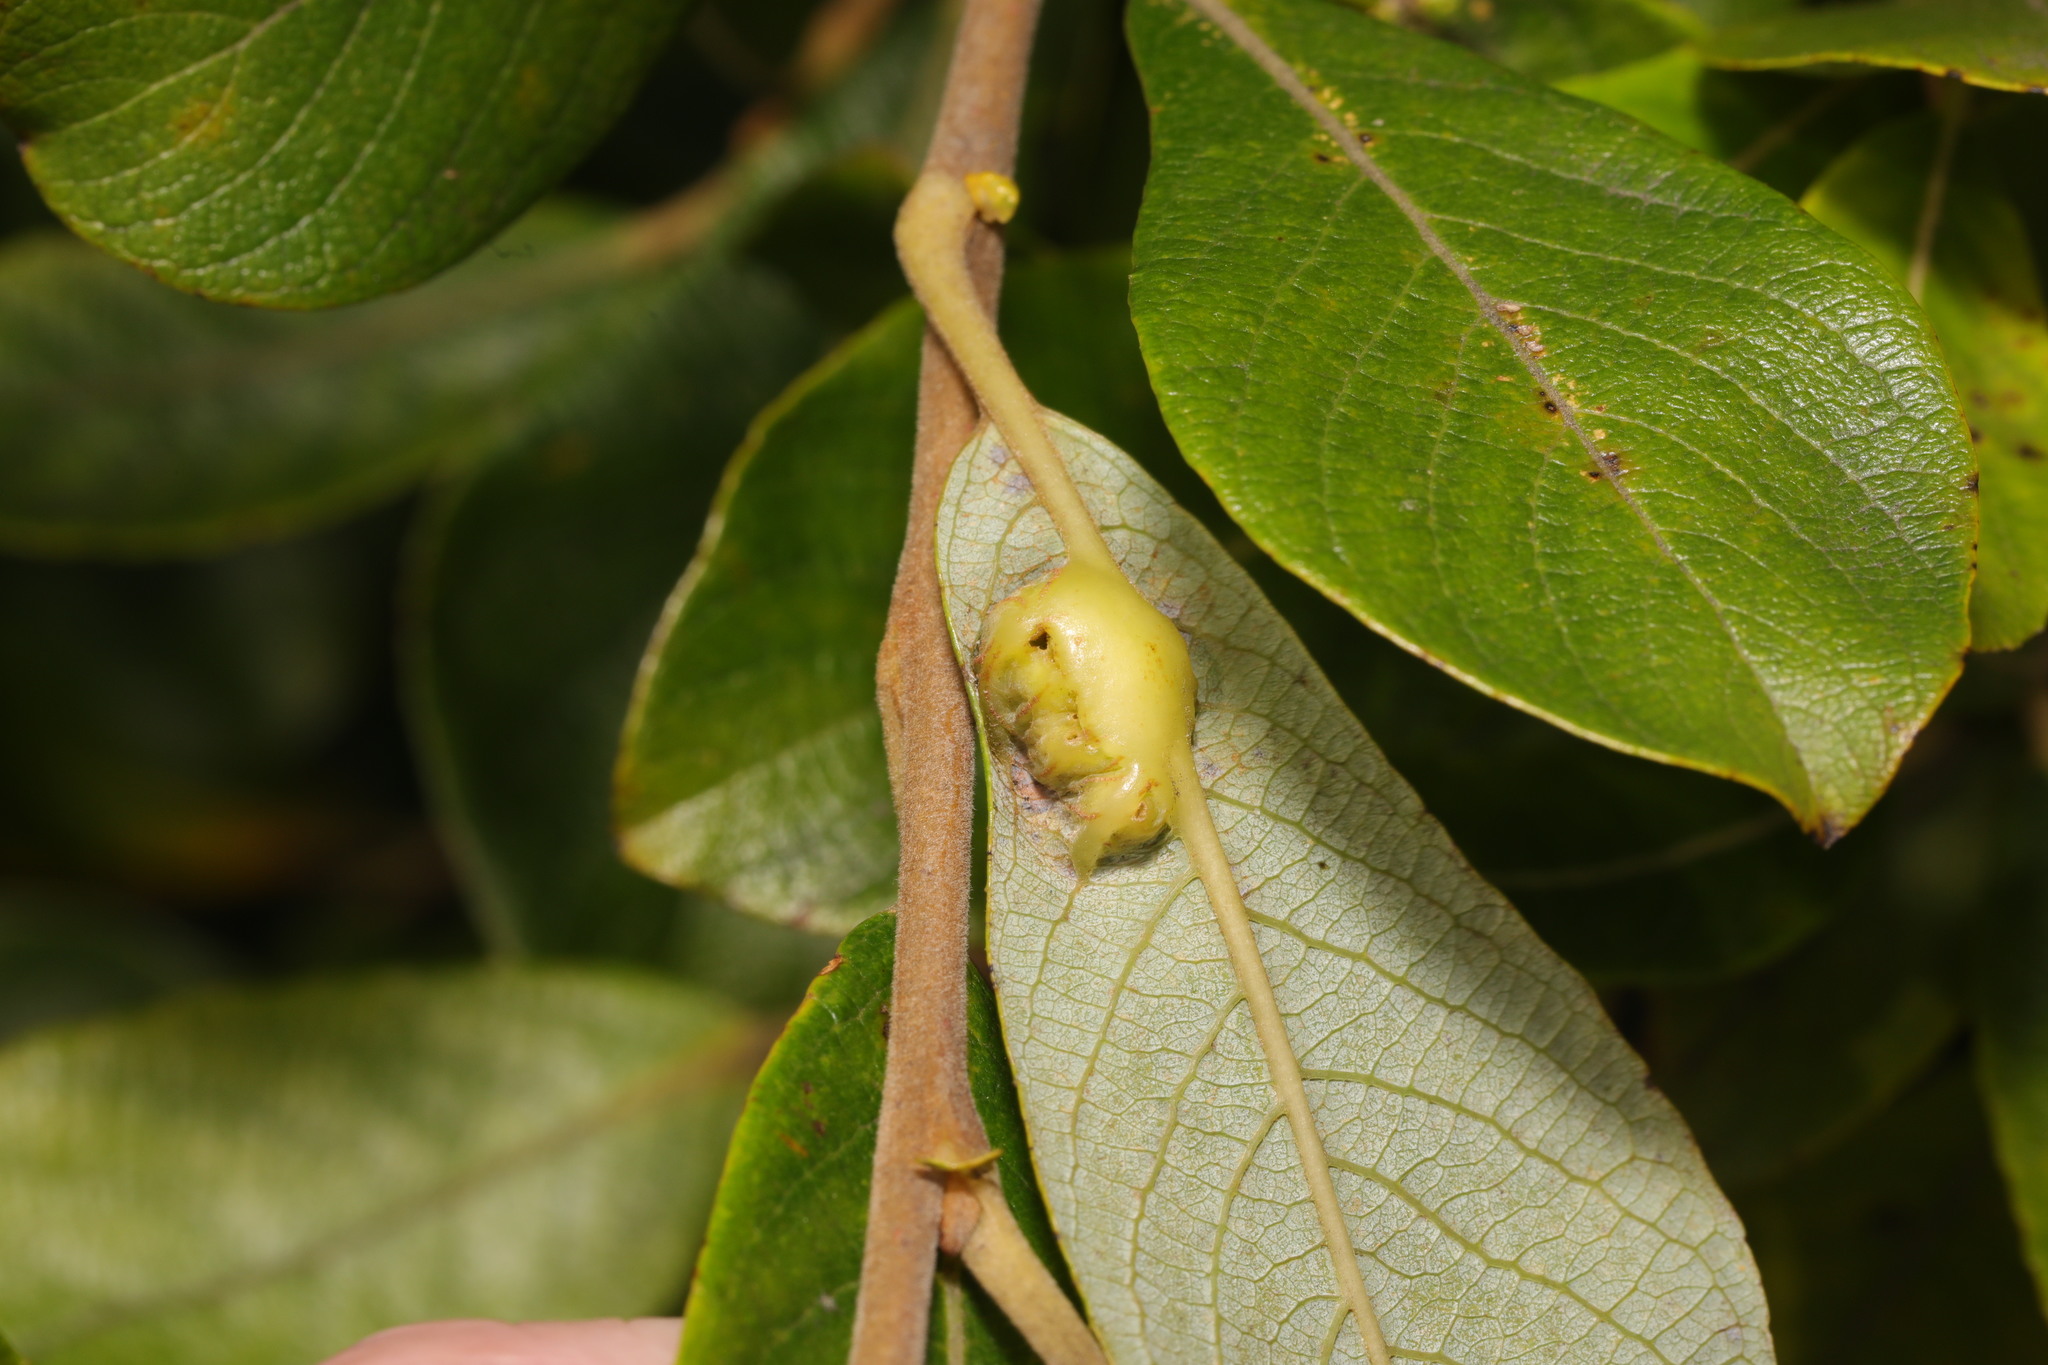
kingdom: Animalia
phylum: Arthropoda
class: Insecta
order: Diptera
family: Cecidomyiidae
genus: Iteomyia
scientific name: Iteomyia major
